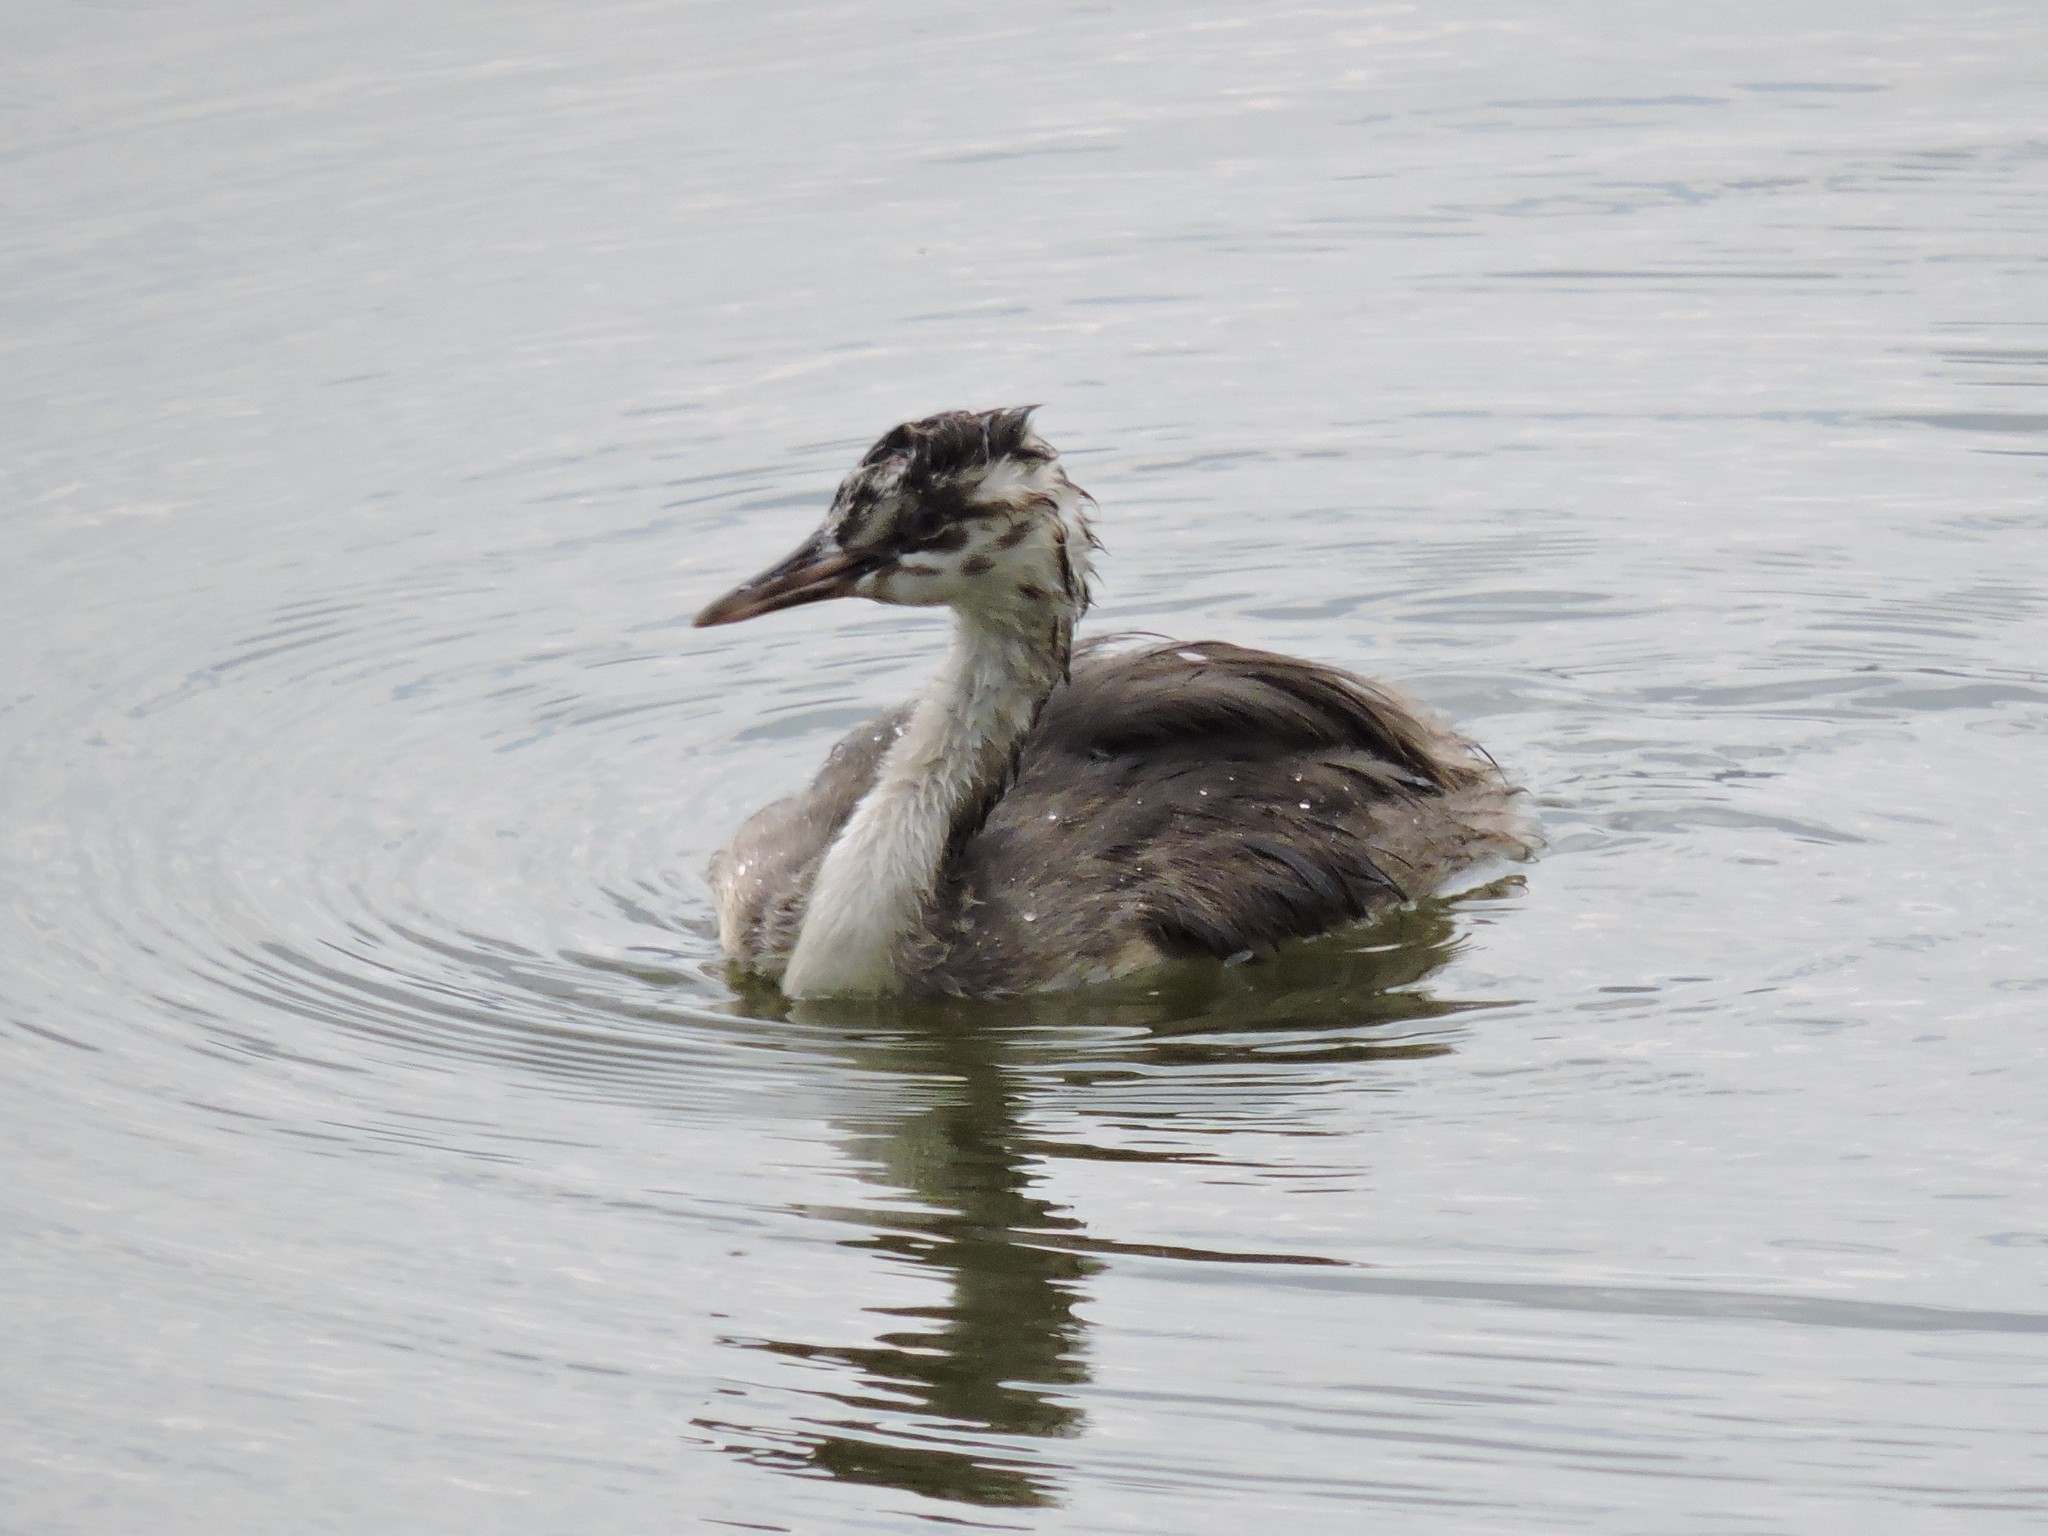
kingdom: Animalia
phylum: Chordata
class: Aves
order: Podicipediformes
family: Podicipedidae
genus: Podiceps
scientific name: Podiceps cristatus
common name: Great crested grebe
